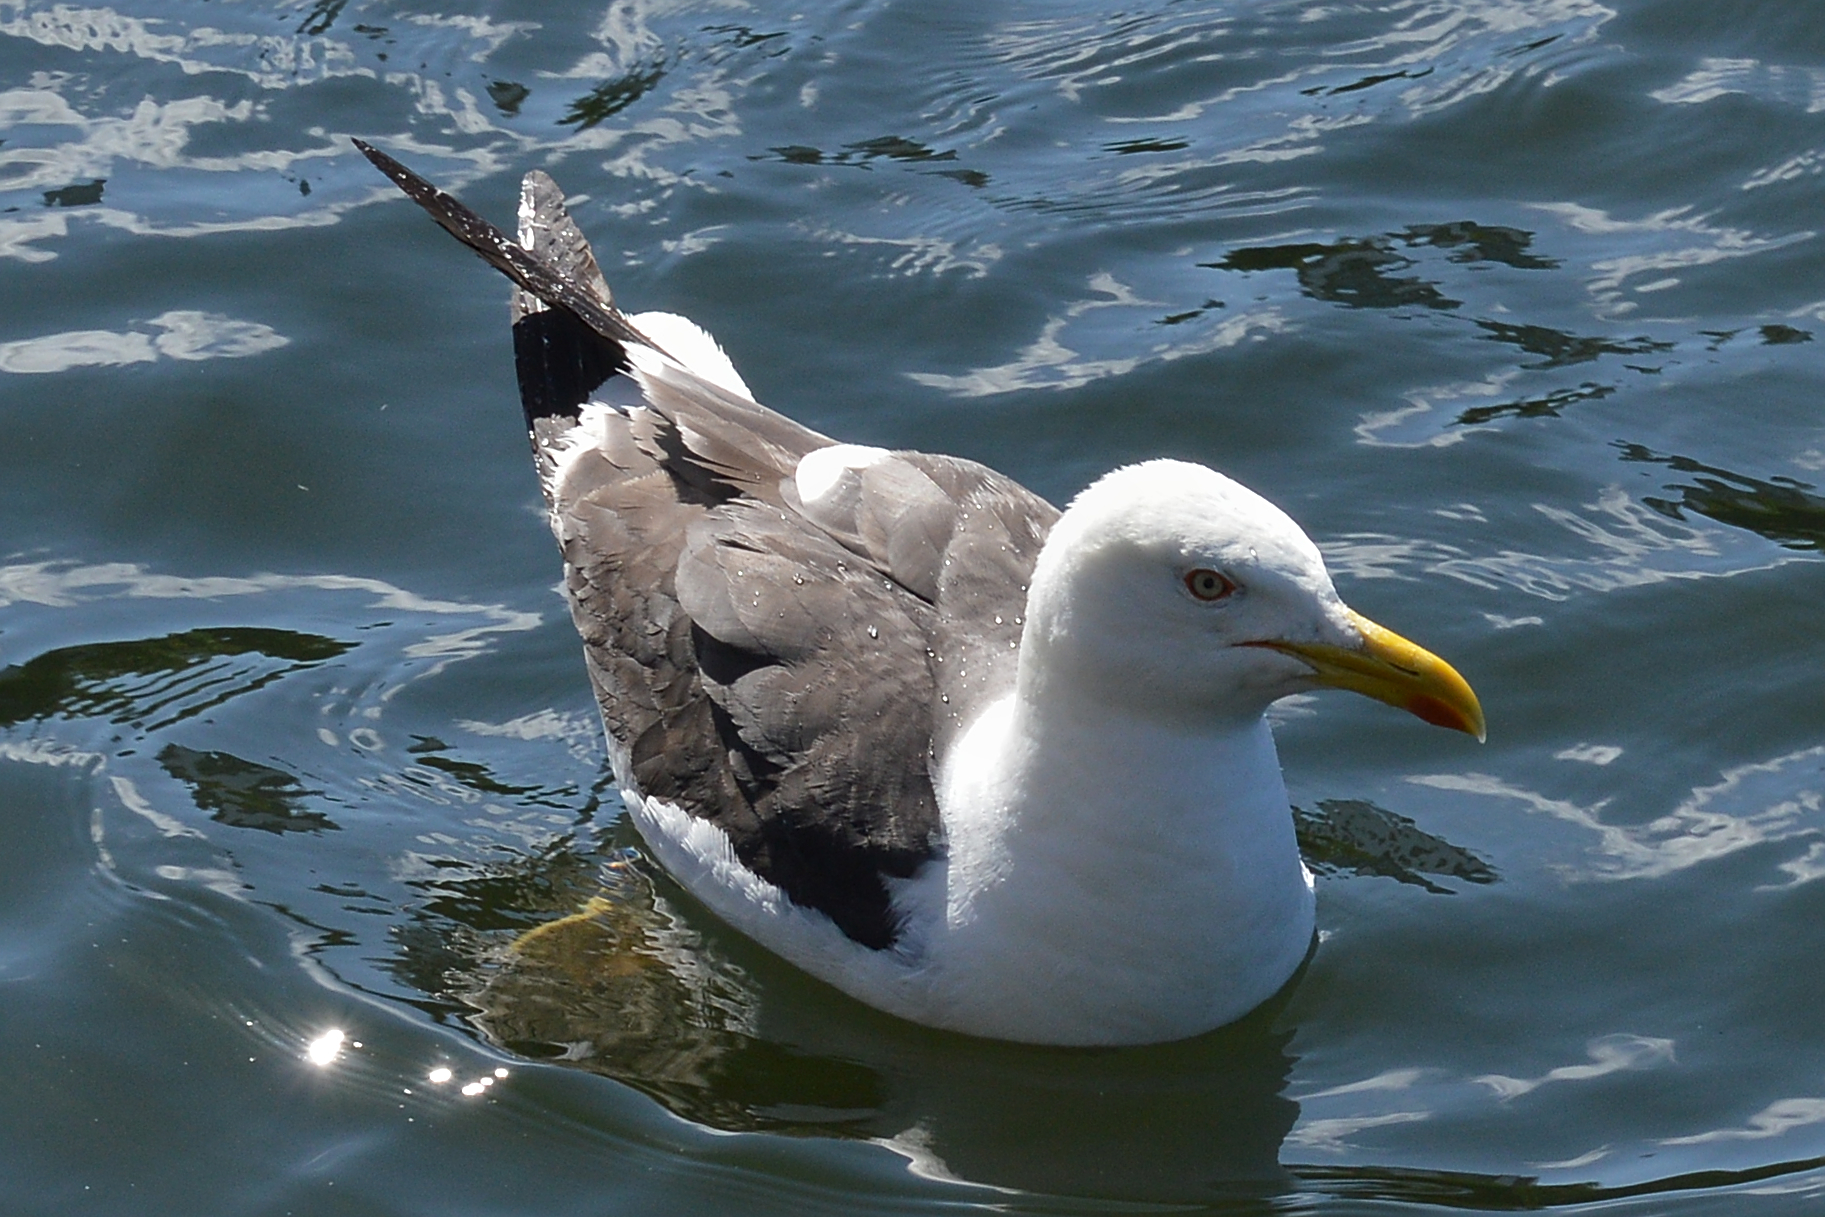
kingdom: Animalia
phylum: Chordata
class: Aves
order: Charadriiformes
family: Laridae
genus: Larus
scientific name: Larus fuscus
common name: Lesser black-backed gull
